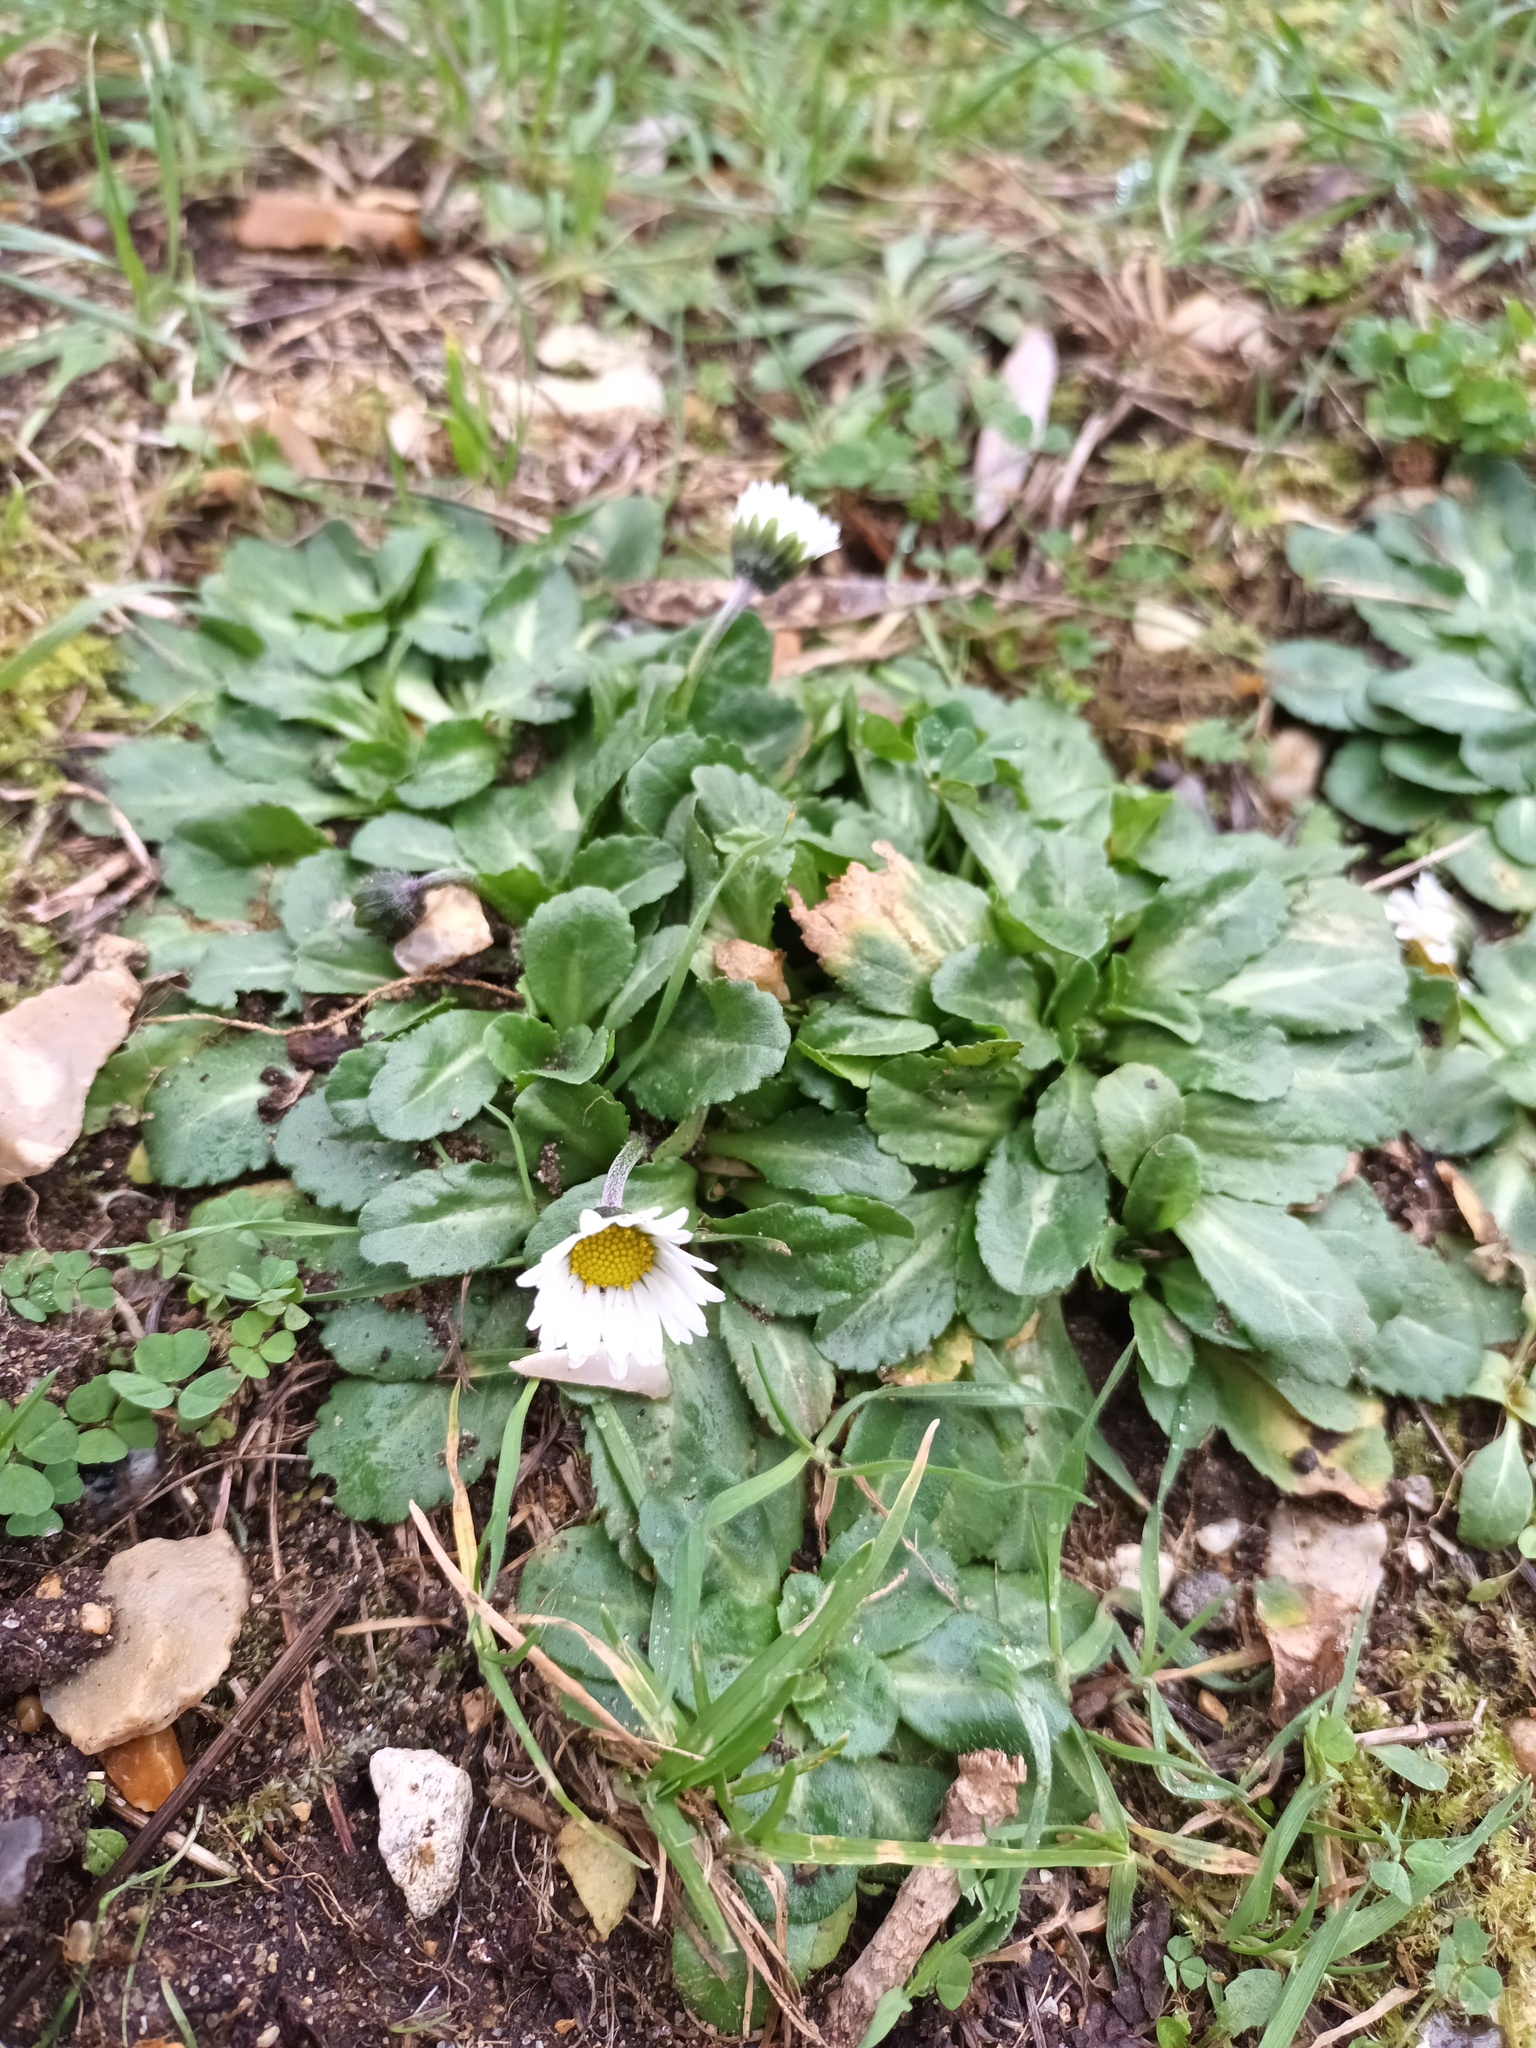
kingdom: Plantae
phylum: Tracheophyta
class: Magnoliopsida
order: Asterales
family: Asteraceae
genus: Bellis
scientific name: Bellis perennis
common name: Lawndaisy
